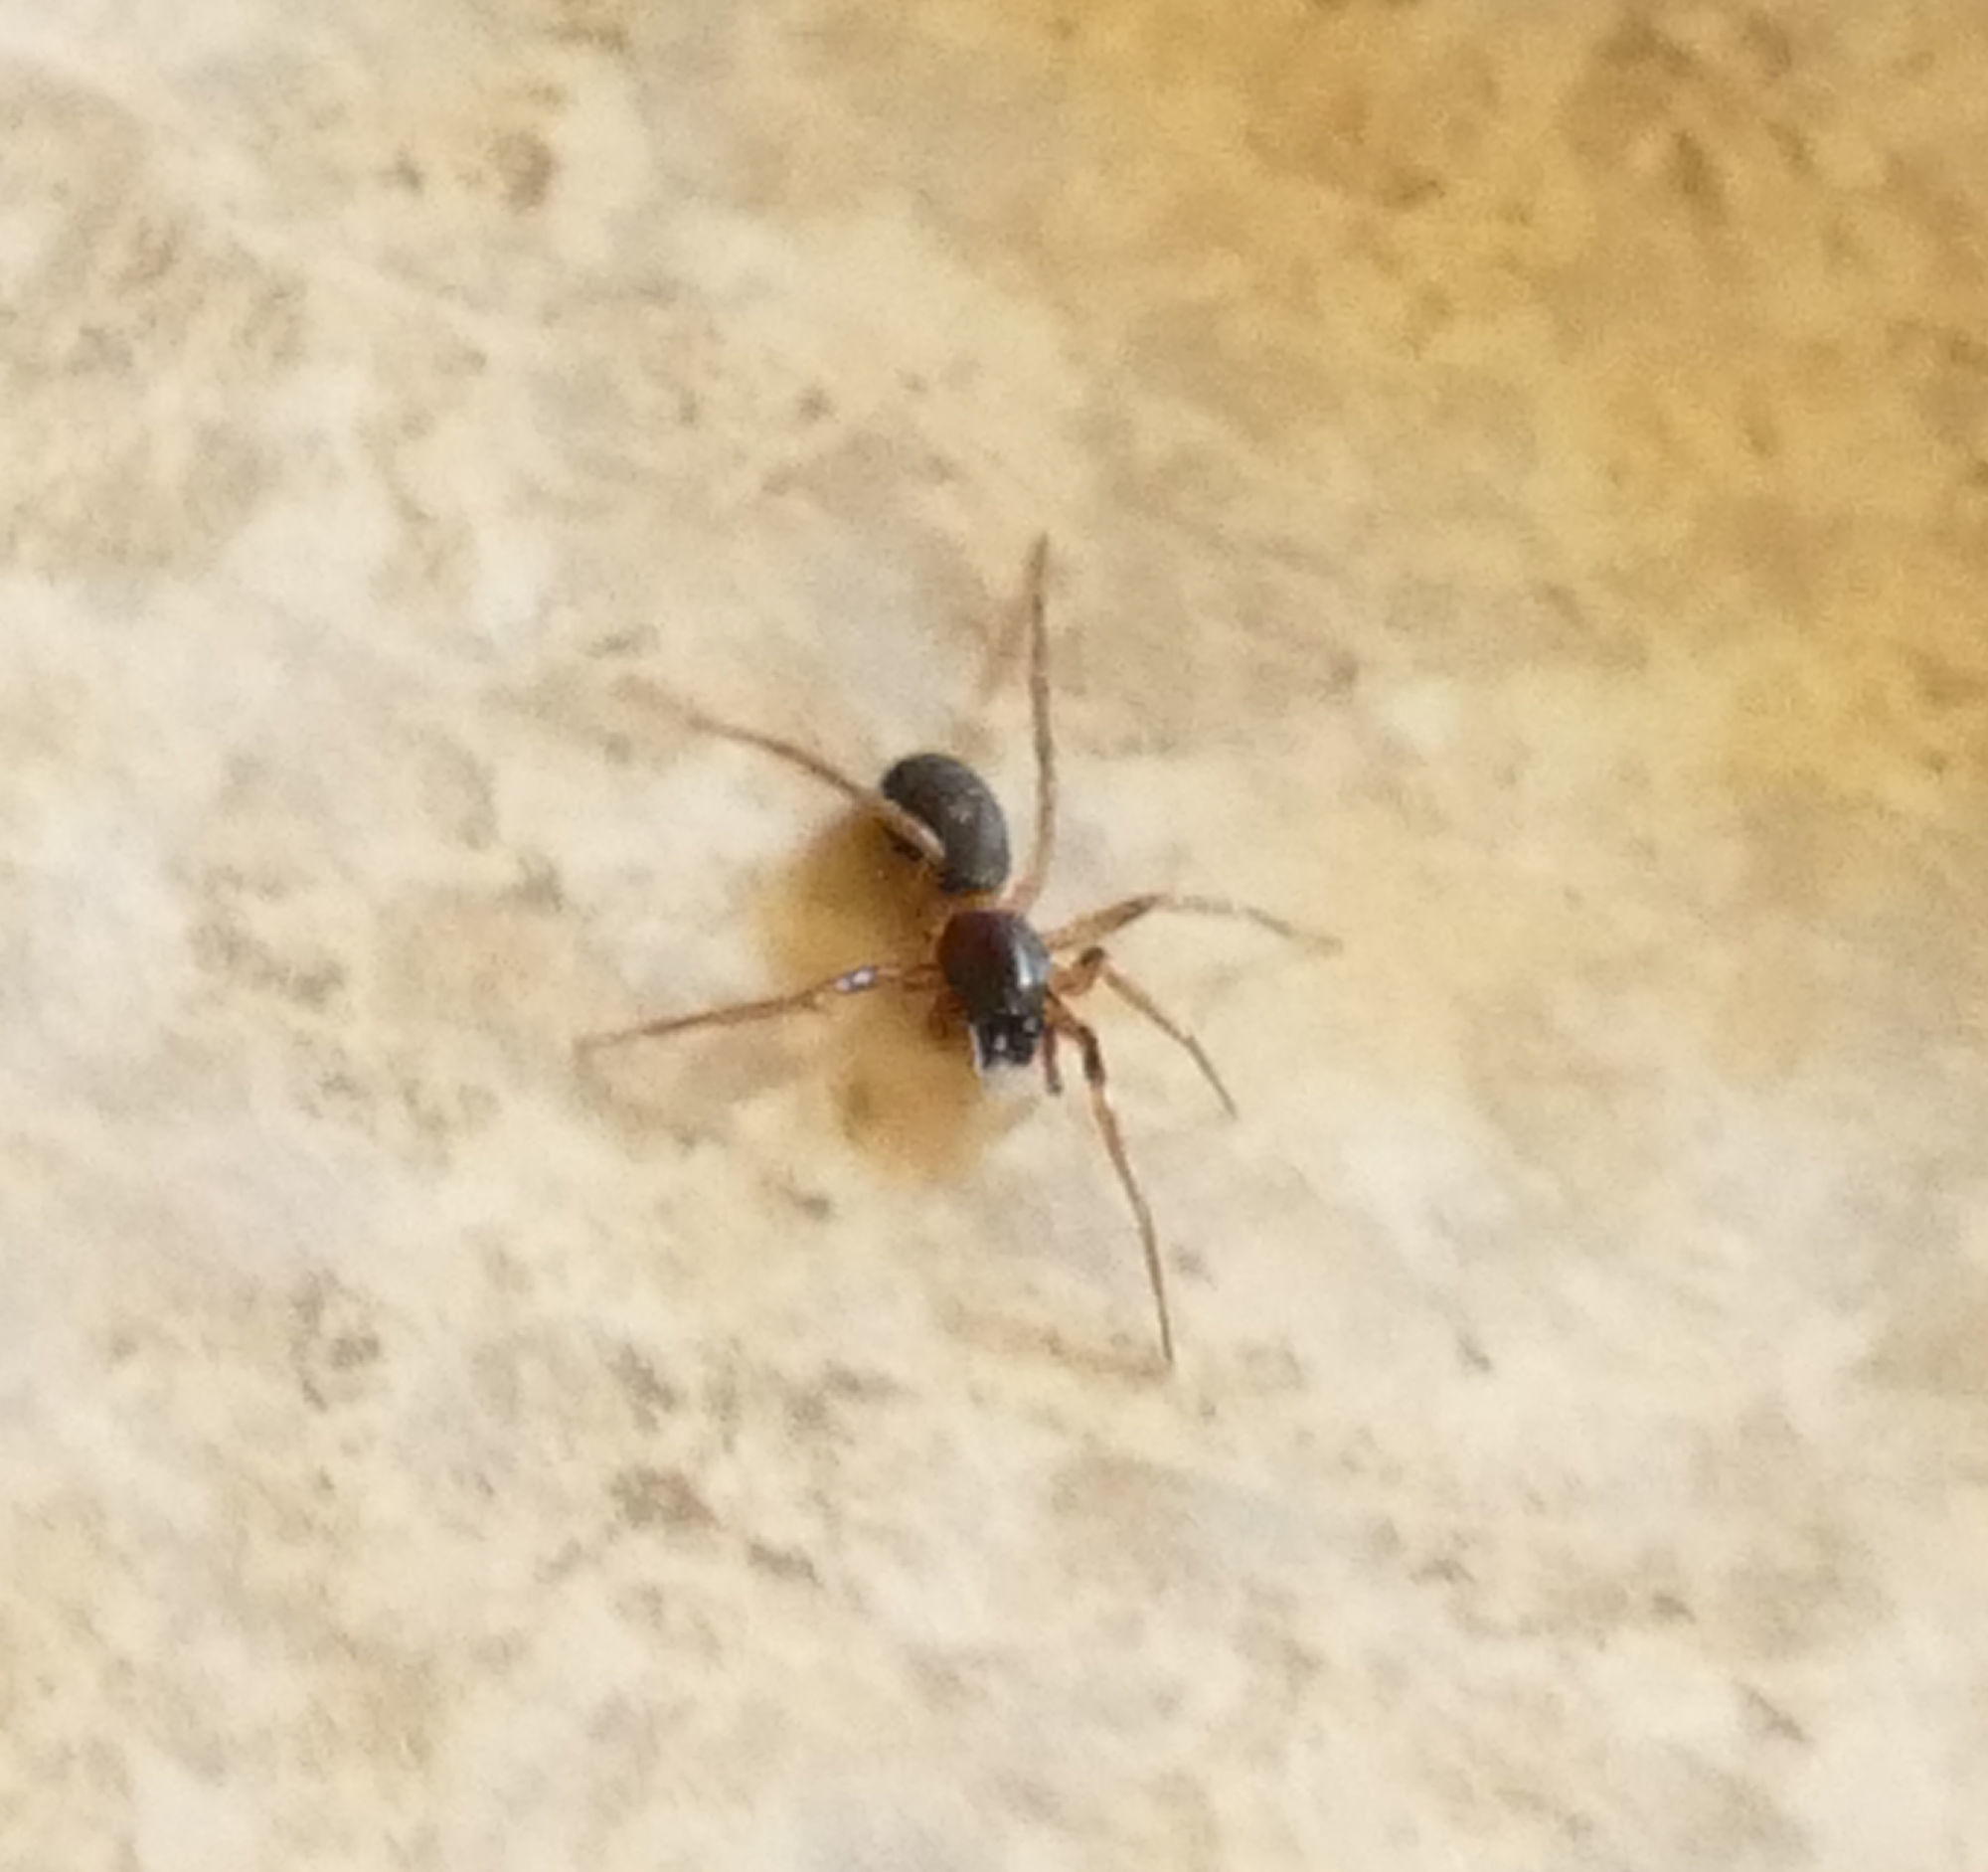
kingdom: Animalia
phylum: Arthropoda
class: Arachnida
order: Araneae
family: Corinnidae
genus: Falconina
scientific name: Falconina gracilis
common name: Antmimic spider
